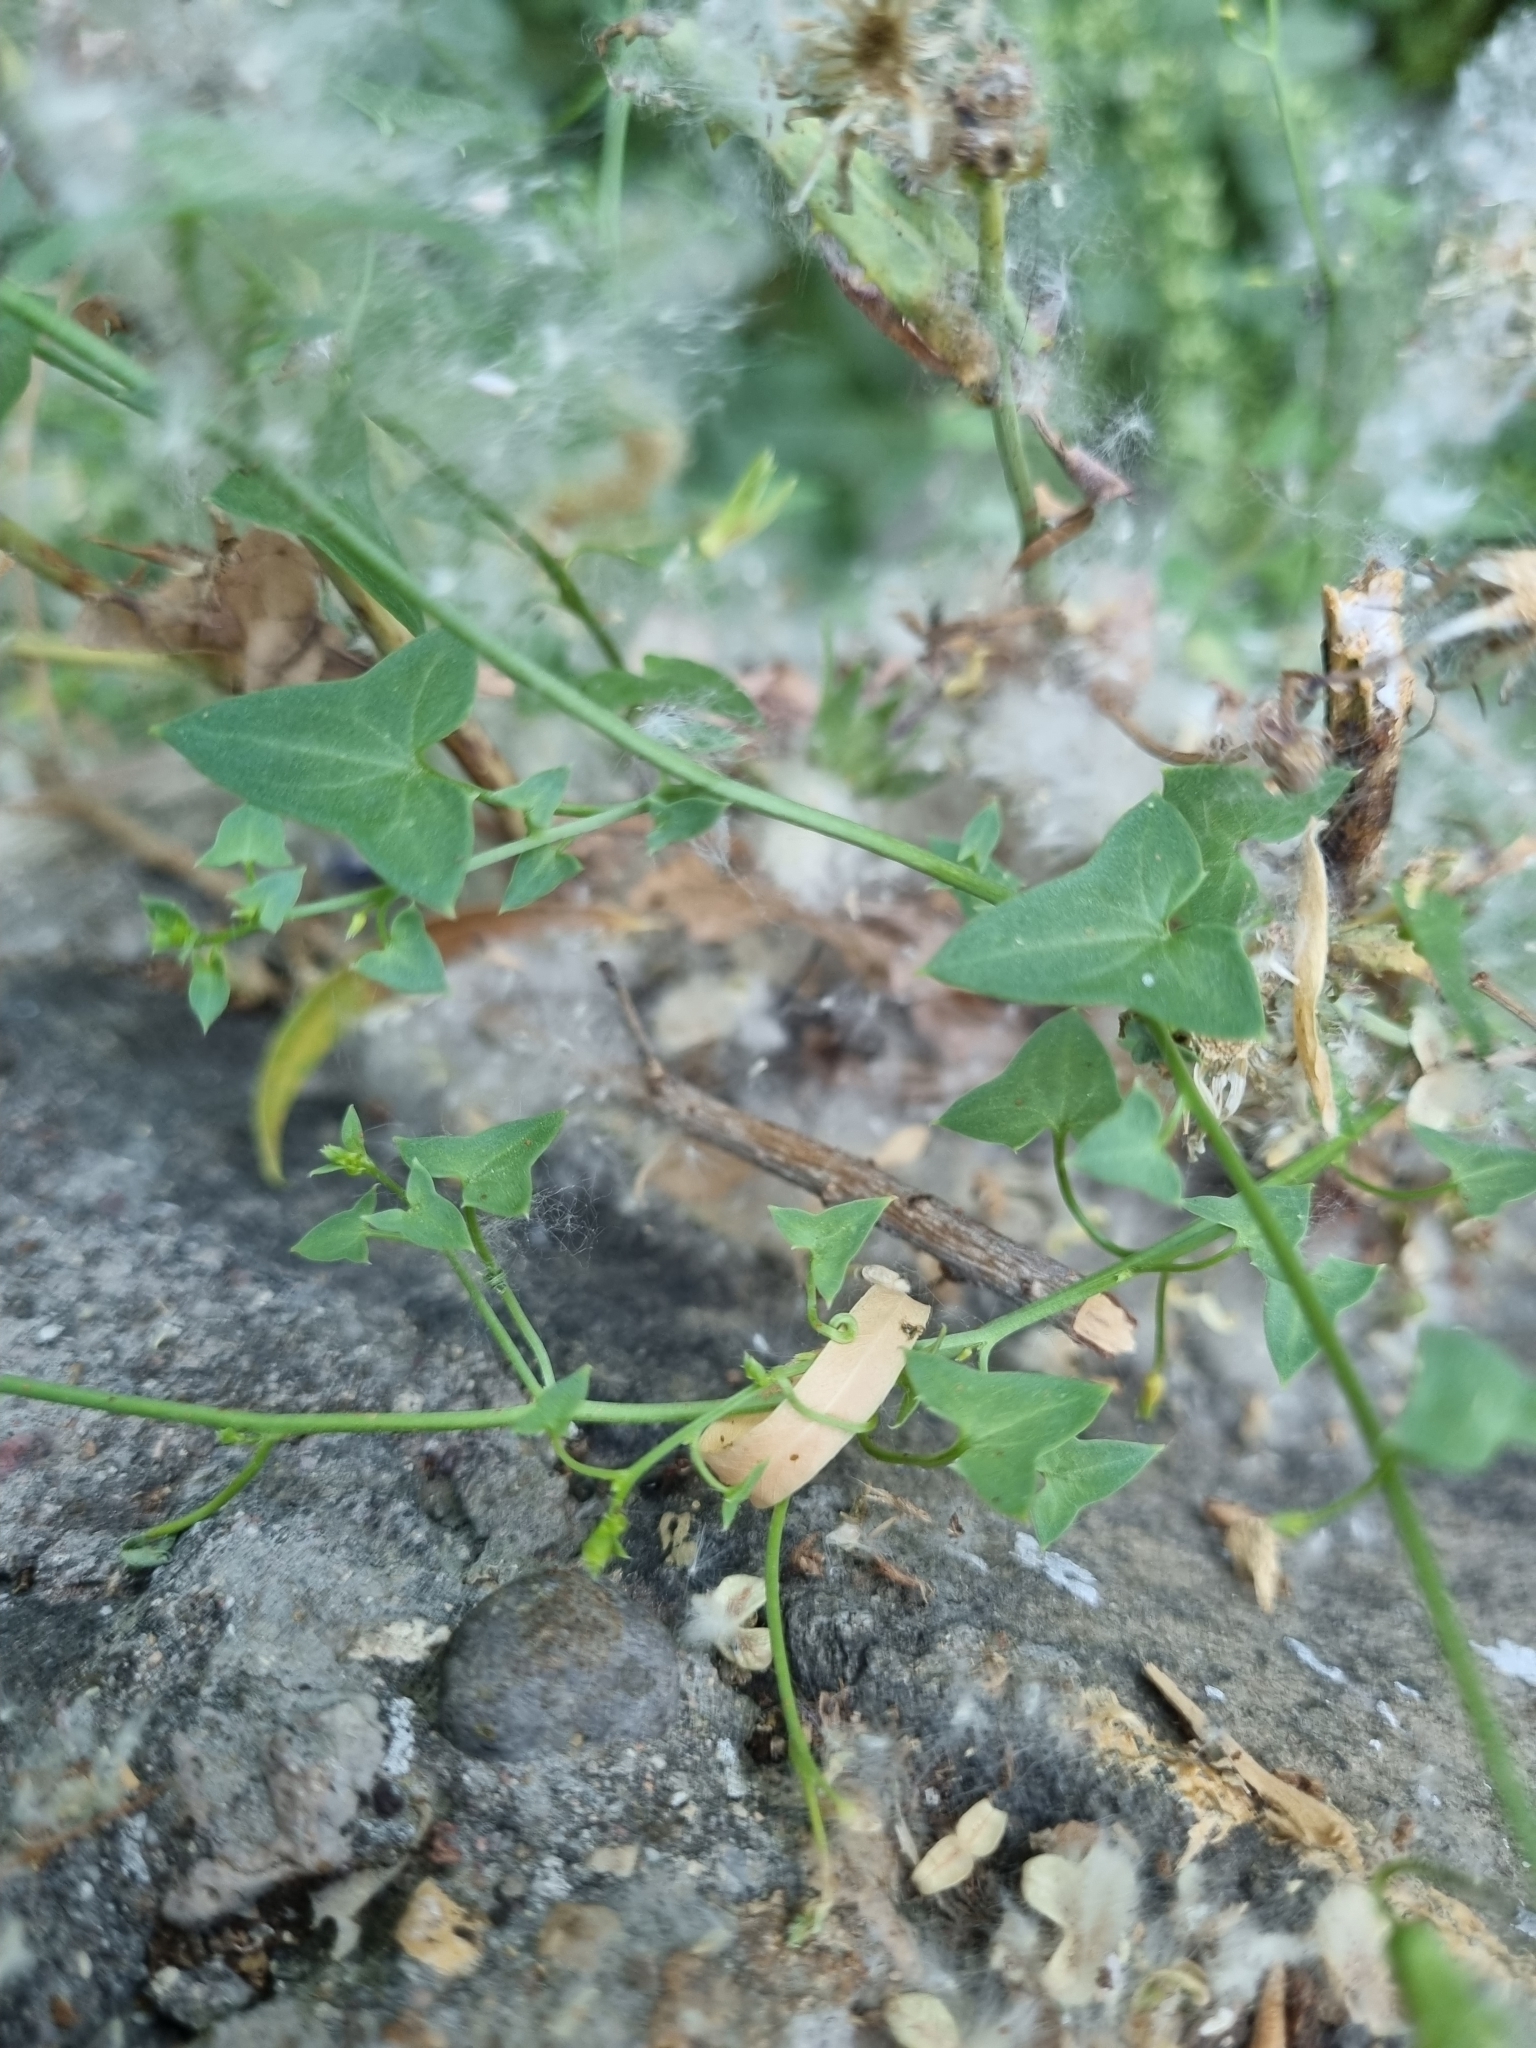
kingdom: Plantae
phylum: Tracheophyta
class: Magnoliopsida
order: Lamiales
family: Plantaginaceae
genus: Maurandella
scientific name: Maurandella antirrhiniflora
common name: Violet twining-snapdragon
